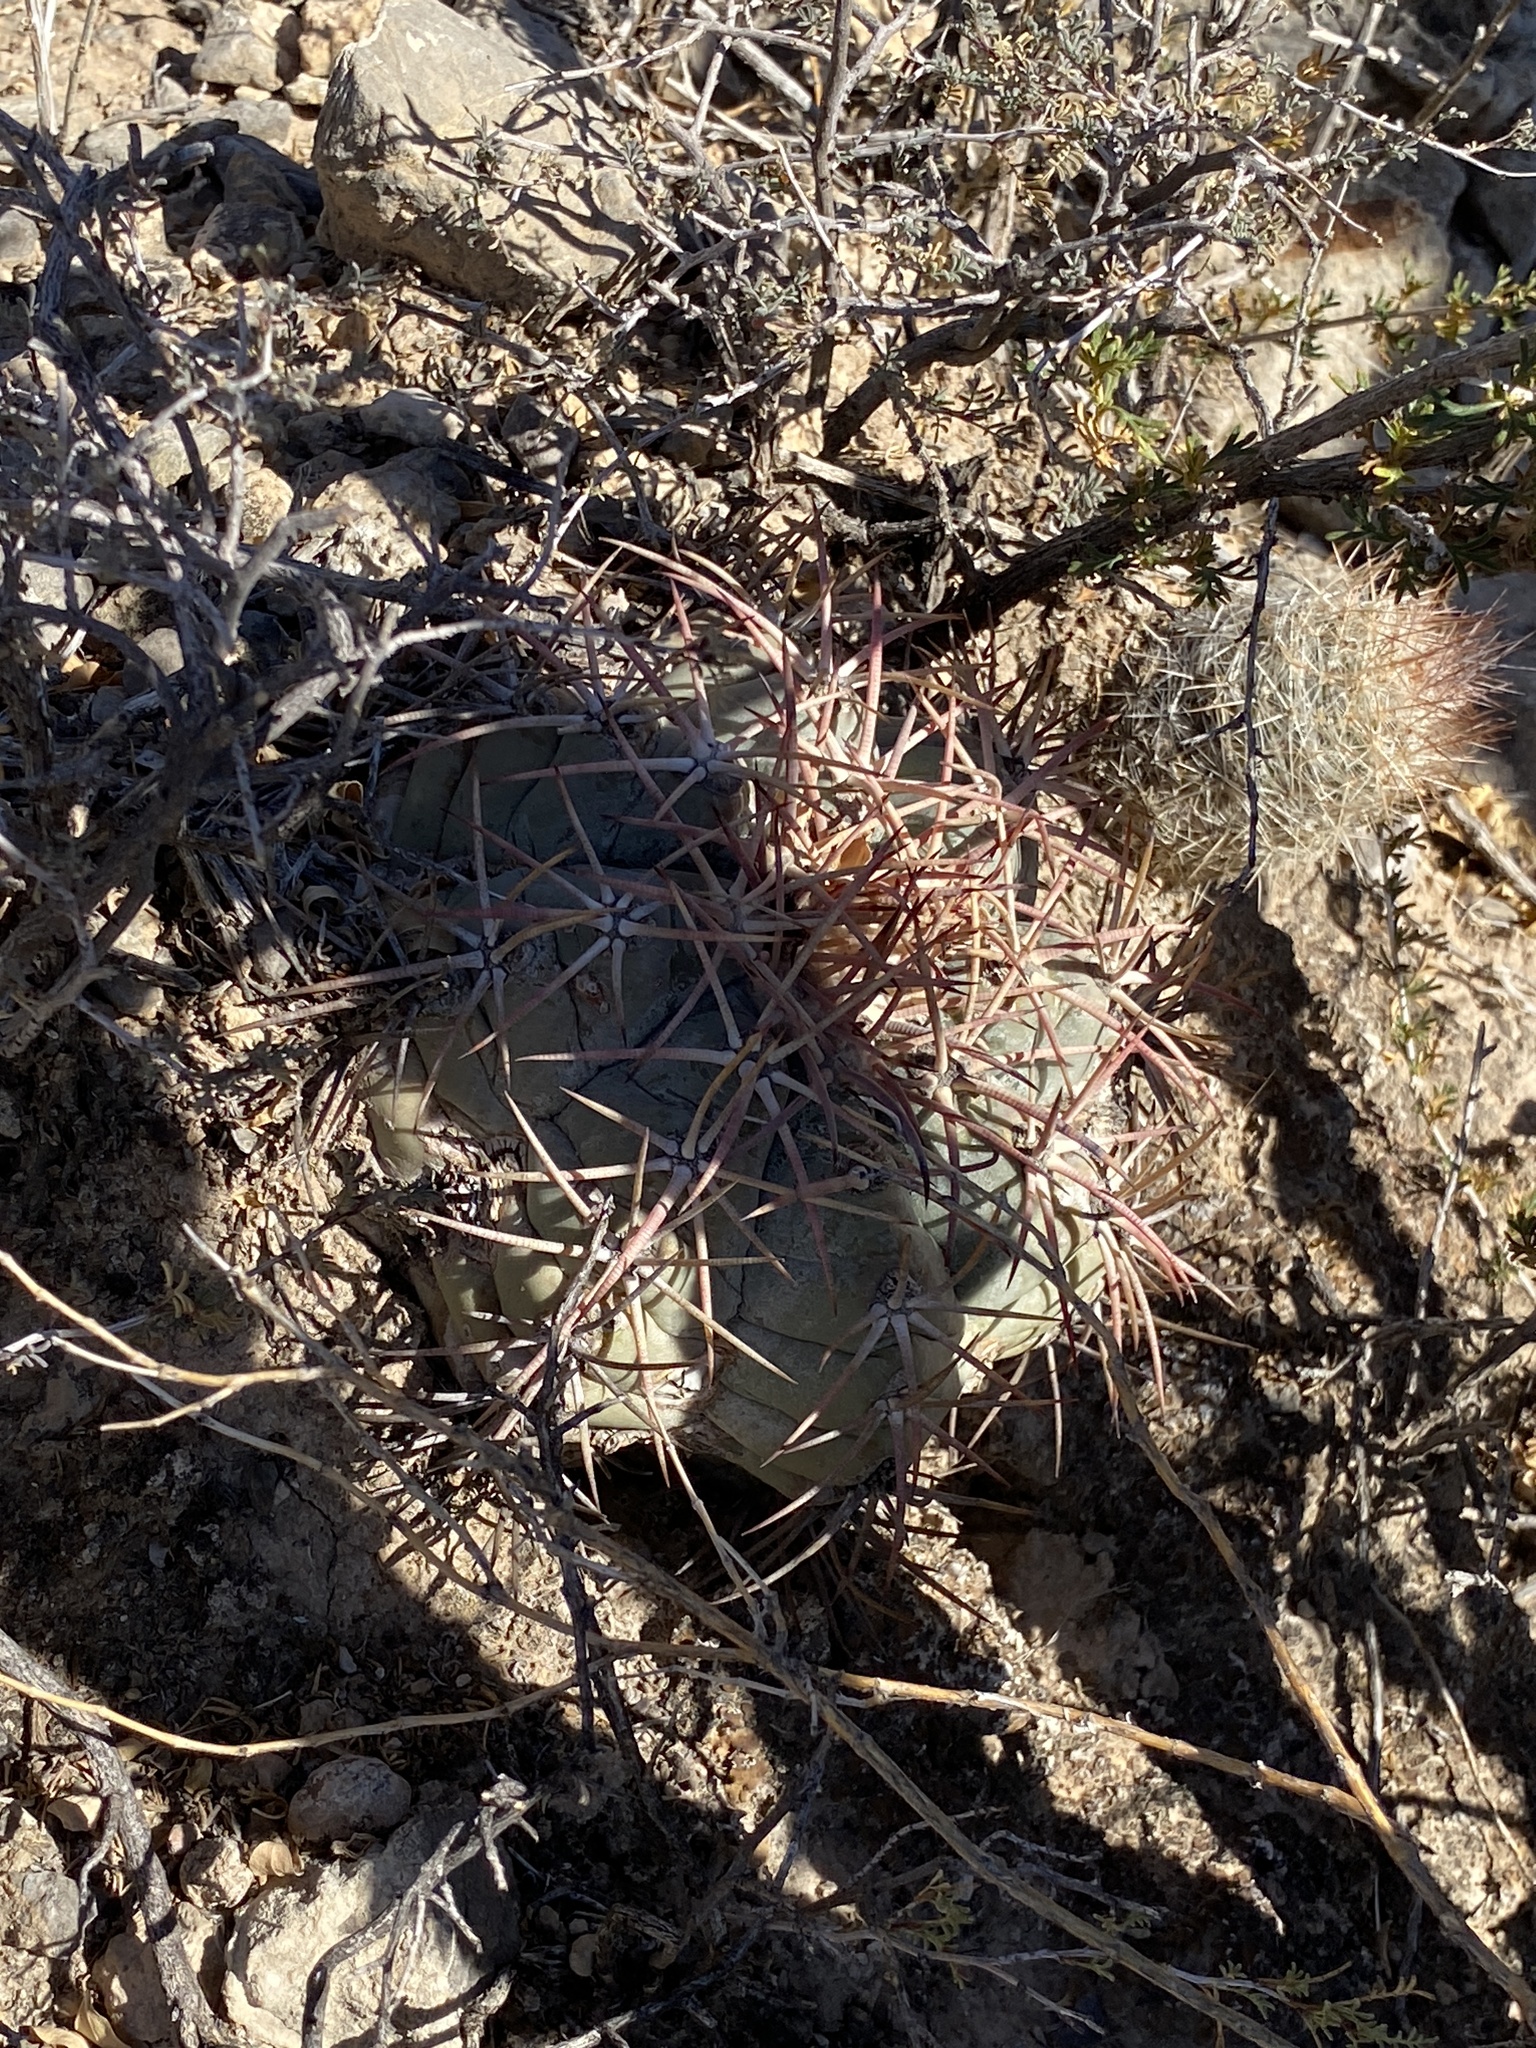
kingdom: Plantae
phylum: Tracheophyta
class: Magnoliopsida
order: Caryophyllales
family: Cactaceae
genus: Echinocactus
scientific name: Echinocactus horizonthalonius
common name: Devilshead
